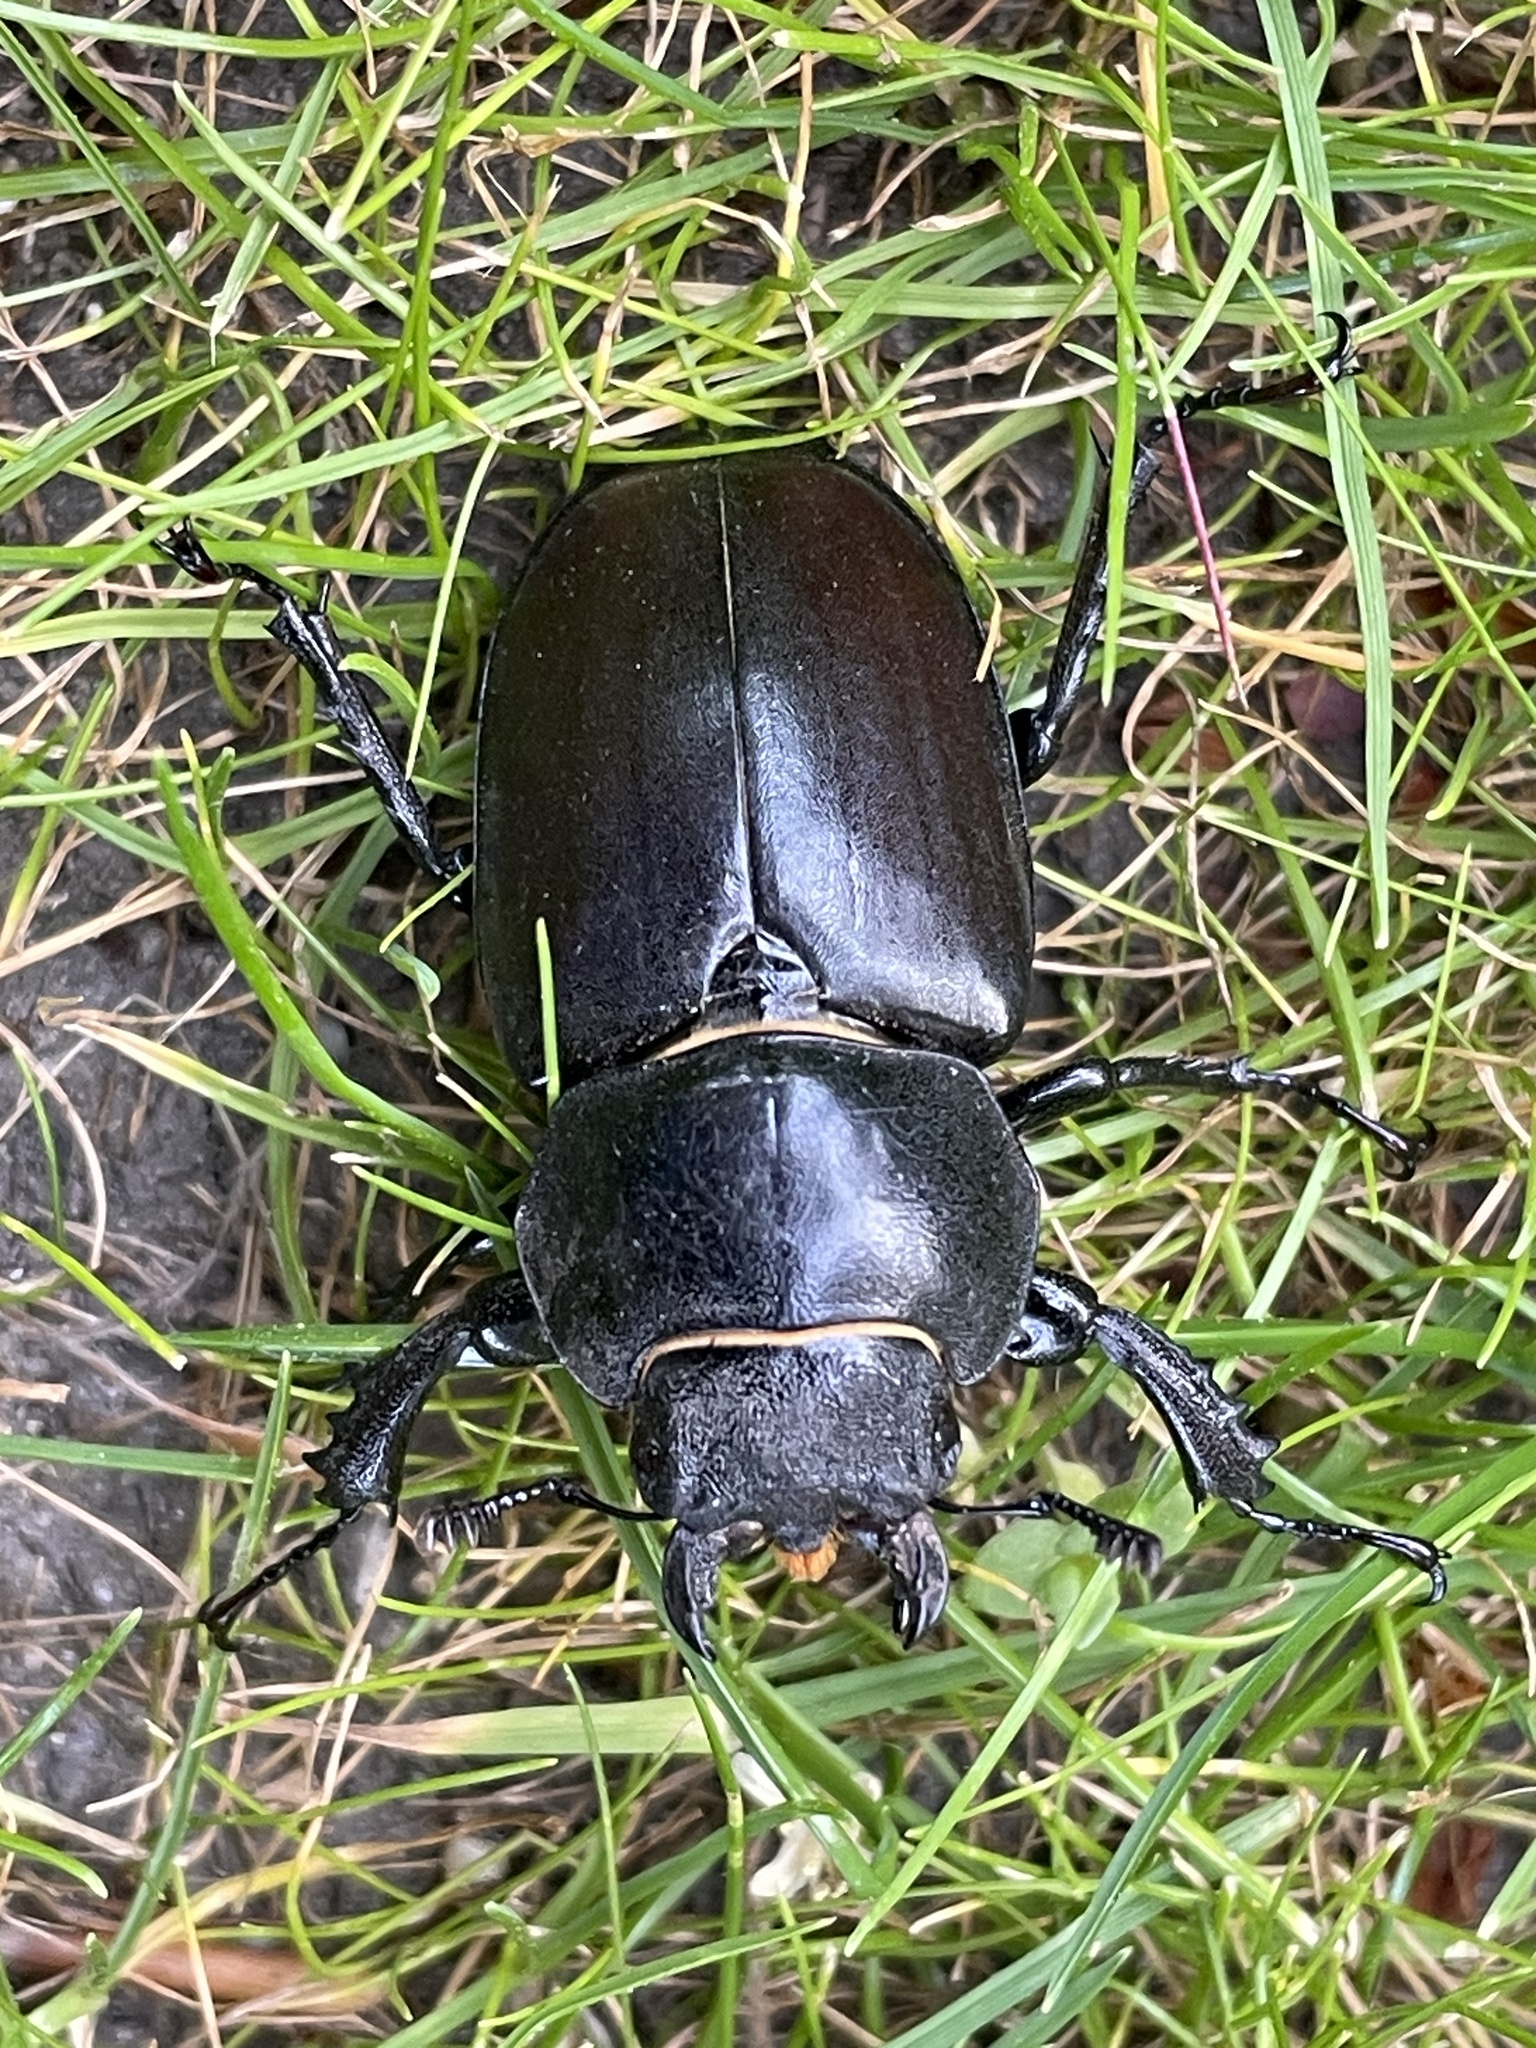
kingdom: Animalia
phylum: Arthropoda
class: Insecta
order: Coleoptera
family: Lucanidae
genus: Lucanus
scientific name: Lucanus cervus
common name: Stag beetle
